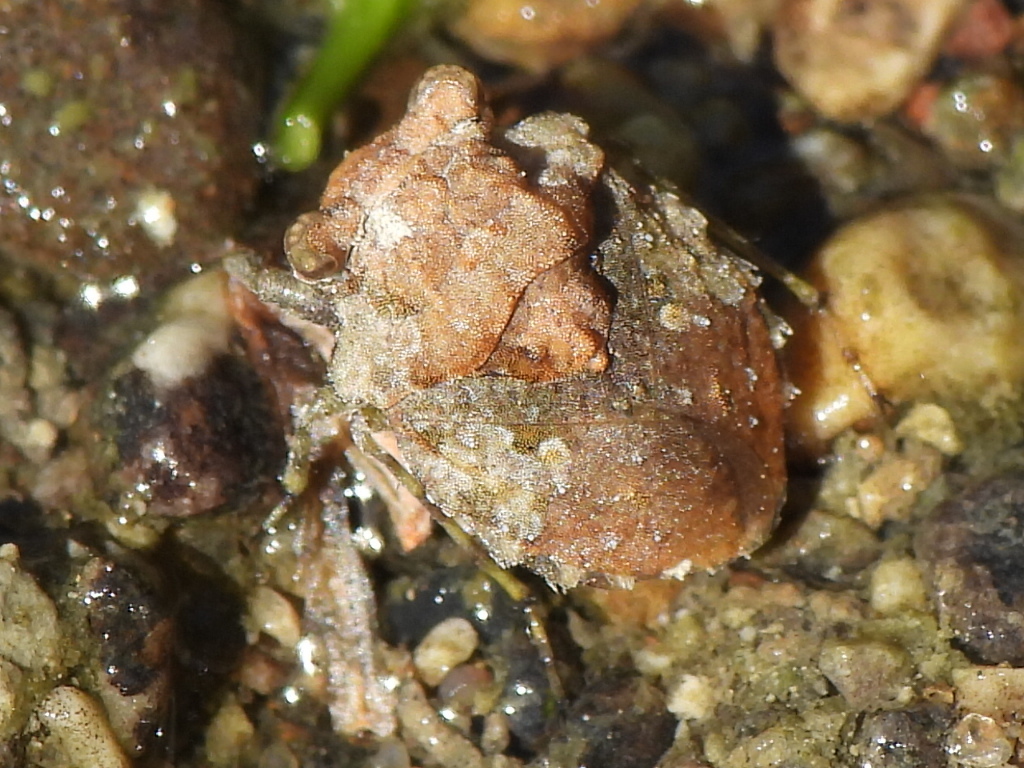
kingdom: Animalia
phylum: Arthropoda
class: Insecta
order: Hemiptera
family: Gelastocoridae
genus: Gelastocoris
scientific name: Gelastocoris oculatus
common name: Toad bug
